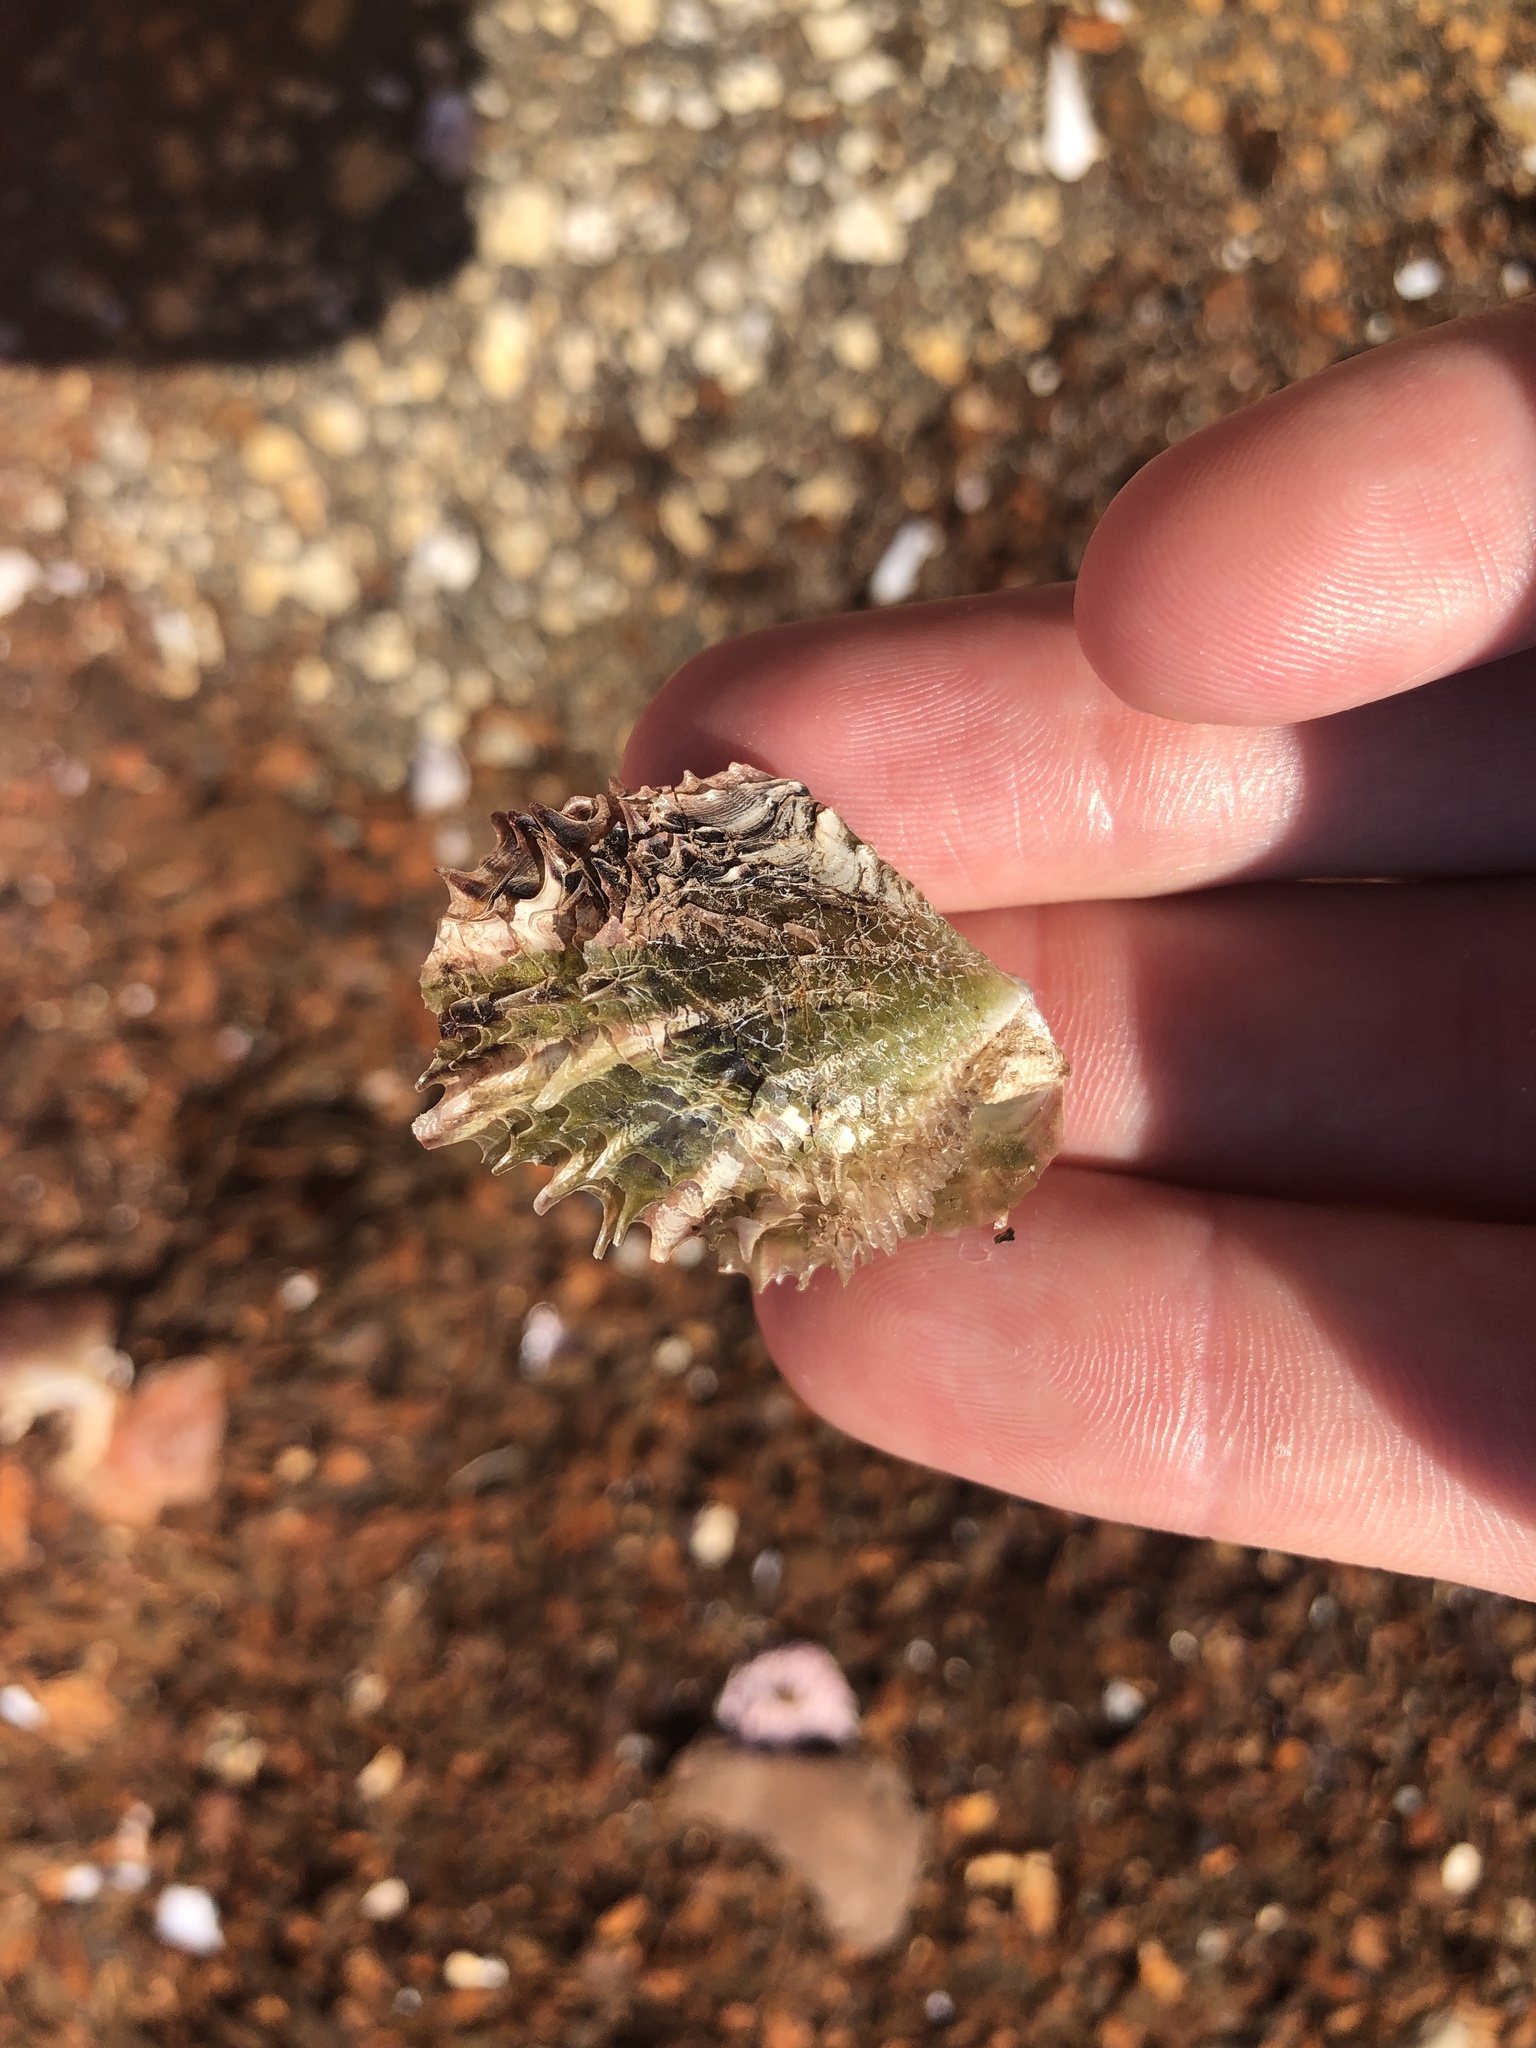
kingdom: Animalia
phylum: Mollusca
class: Bivalvia
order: Ostreida
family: Margaritidae
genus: Pinctada
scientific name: Pinctada imbricata
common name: Atlantic pearl-oyster
